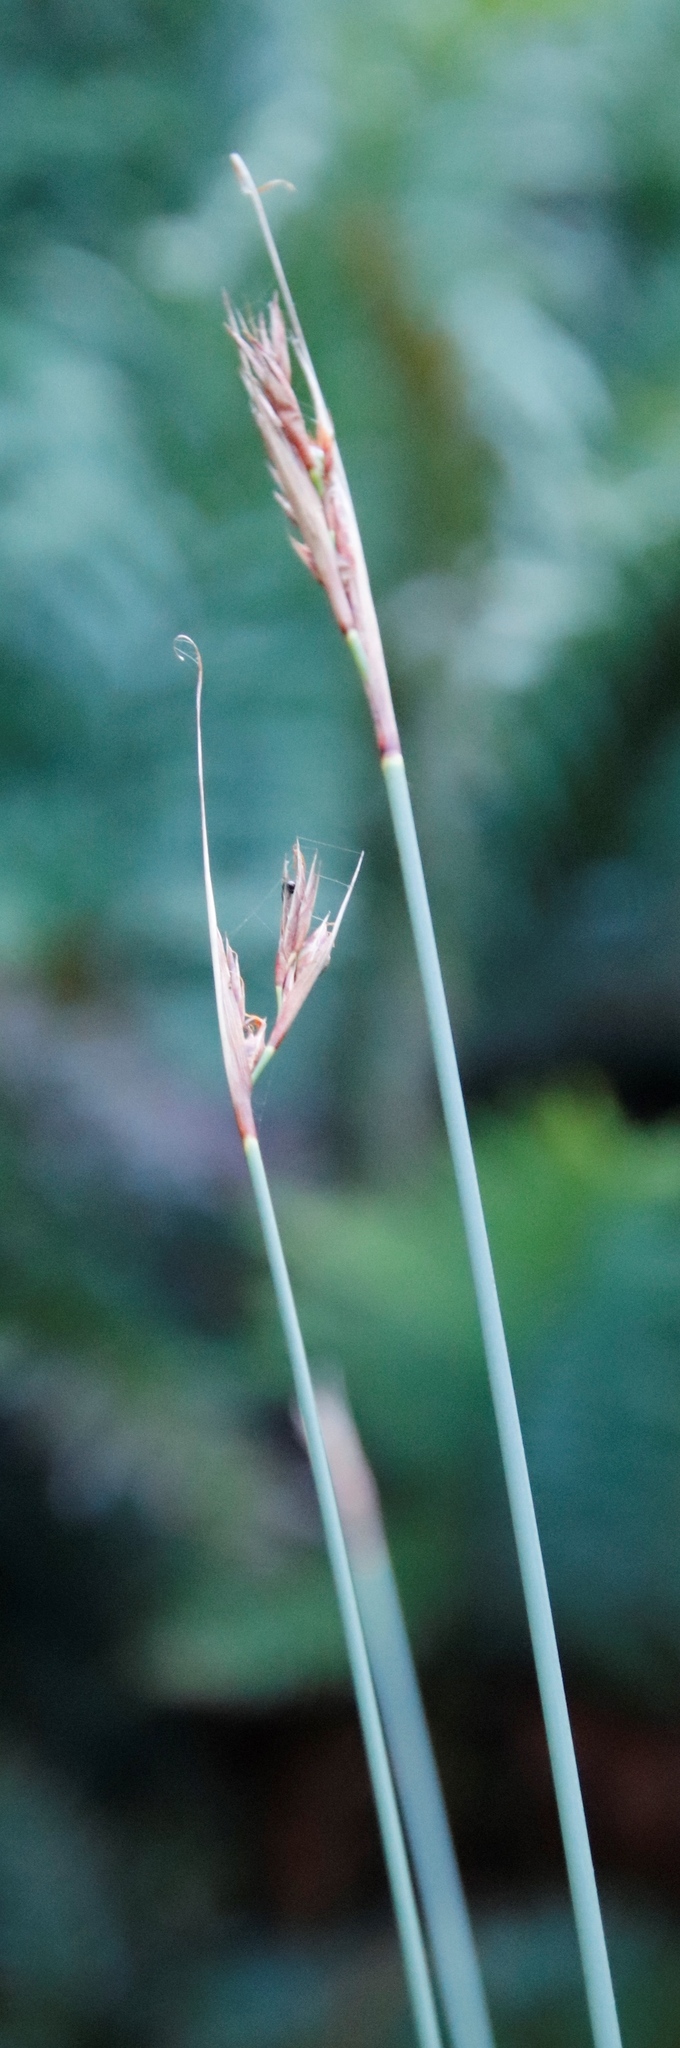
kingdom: Plantae
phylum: Tracheophyta
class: Liliopsida
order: Poales
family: Cyperaceae
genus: Neesenbeckia
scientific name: Neesenbeckia punctoria
